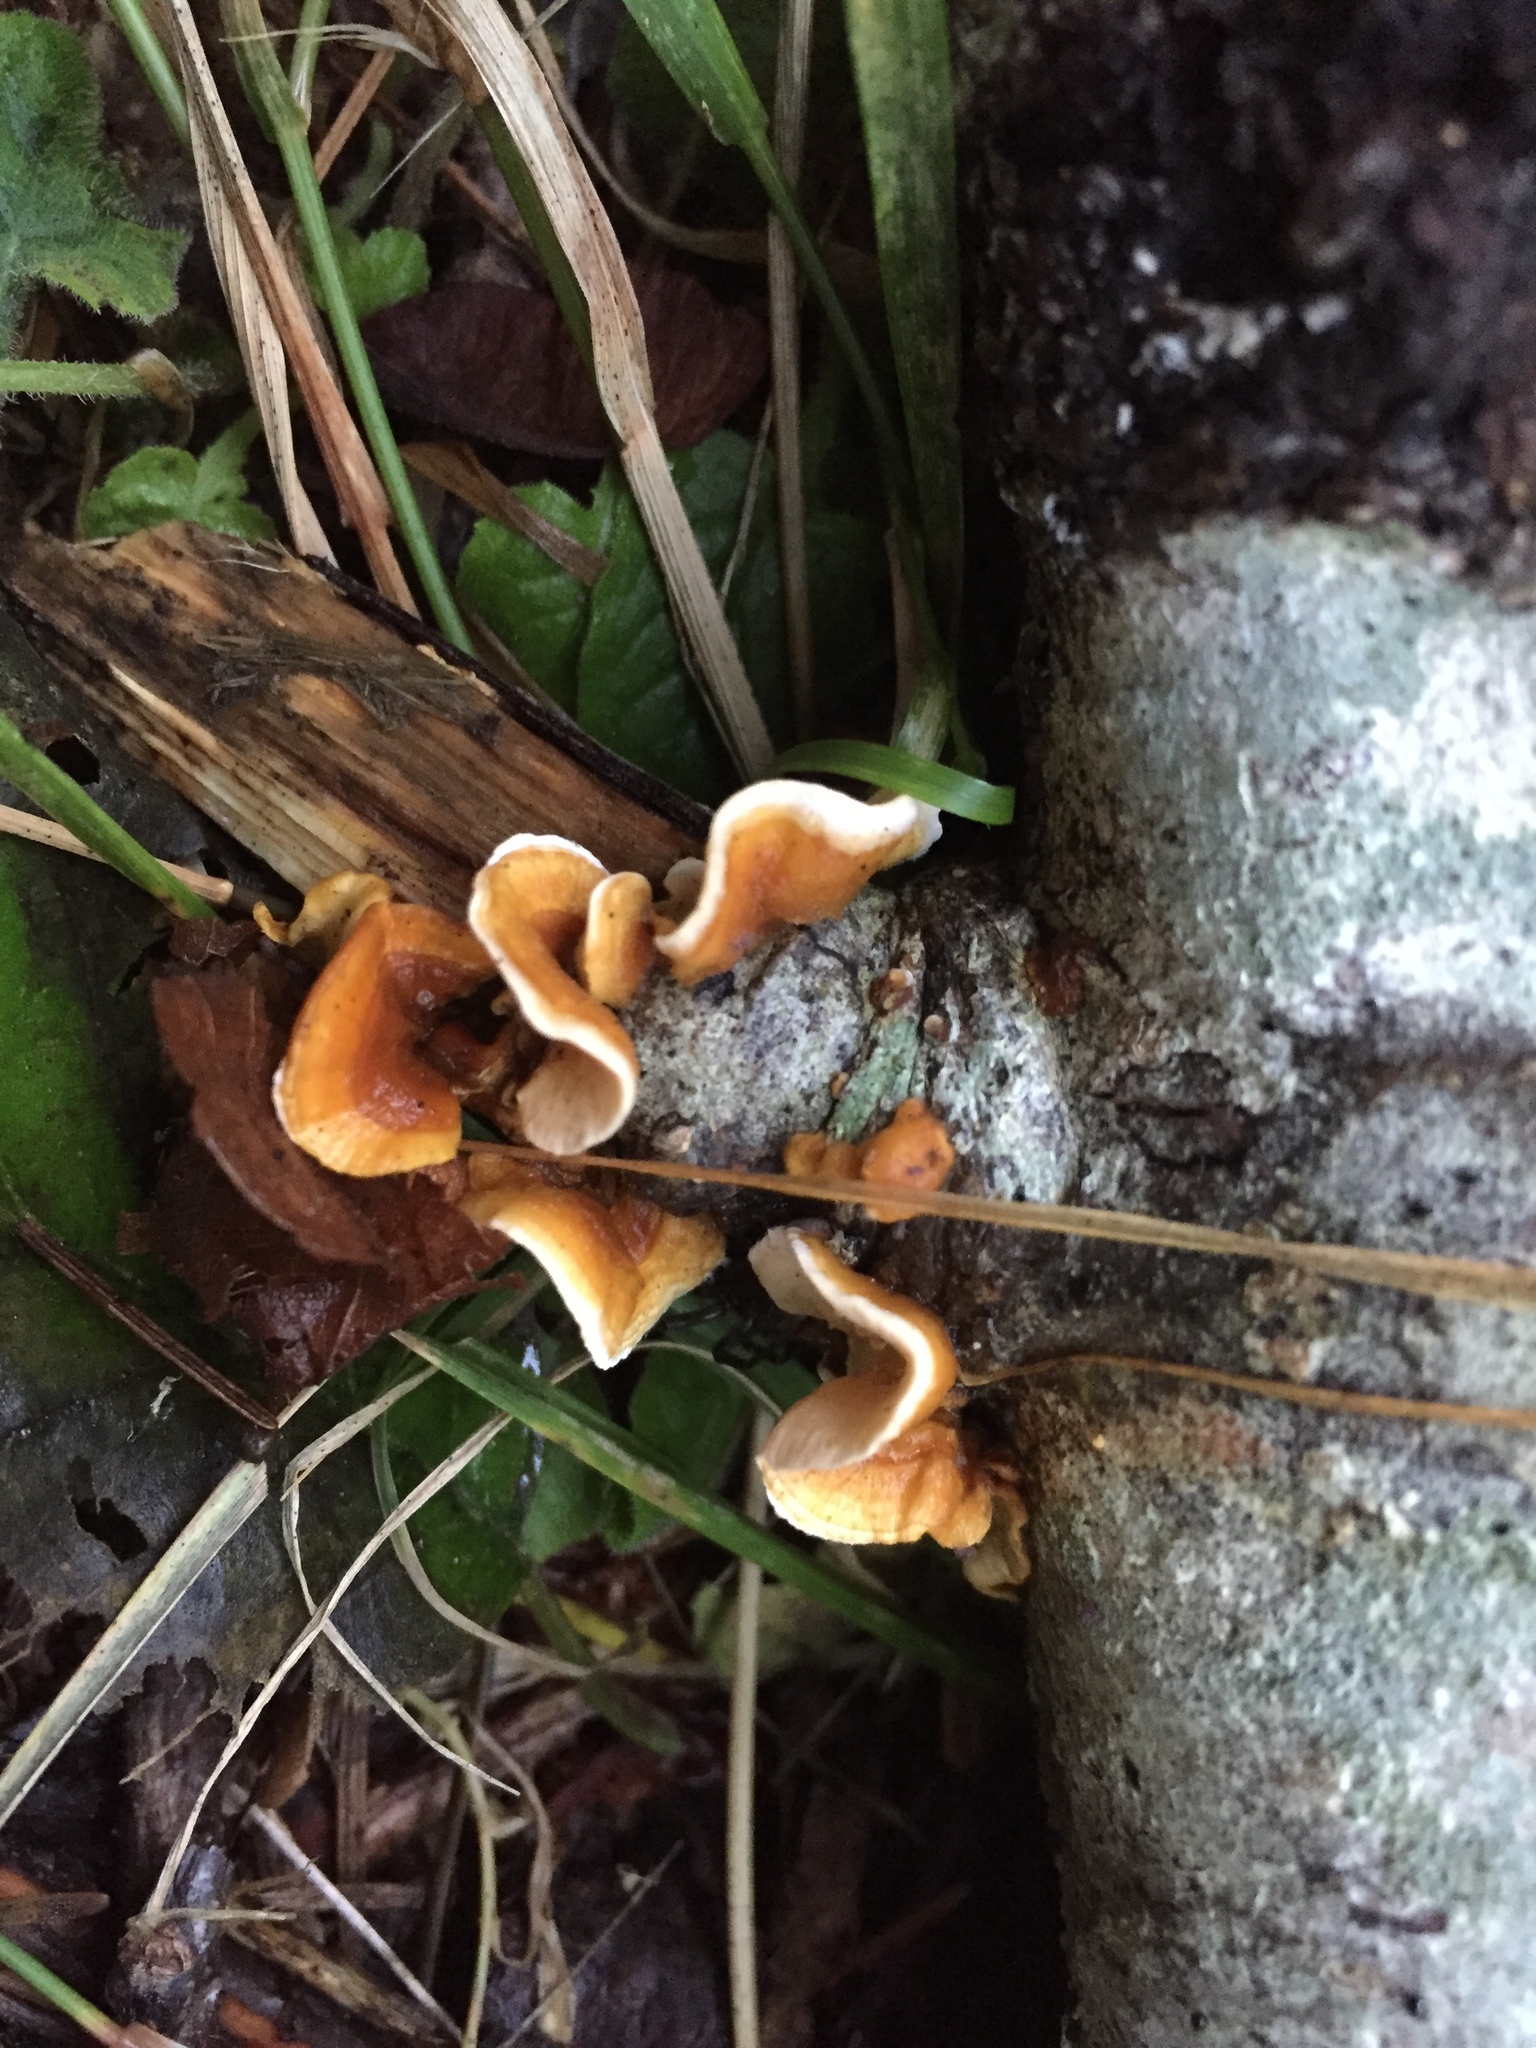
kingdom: Fungi
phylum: Basidiomycota
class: Agaricomycetes
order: Russulales
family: Stereaceae
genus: Stereum
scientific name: Stereum hirsutum
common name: Hairy curtain crust
